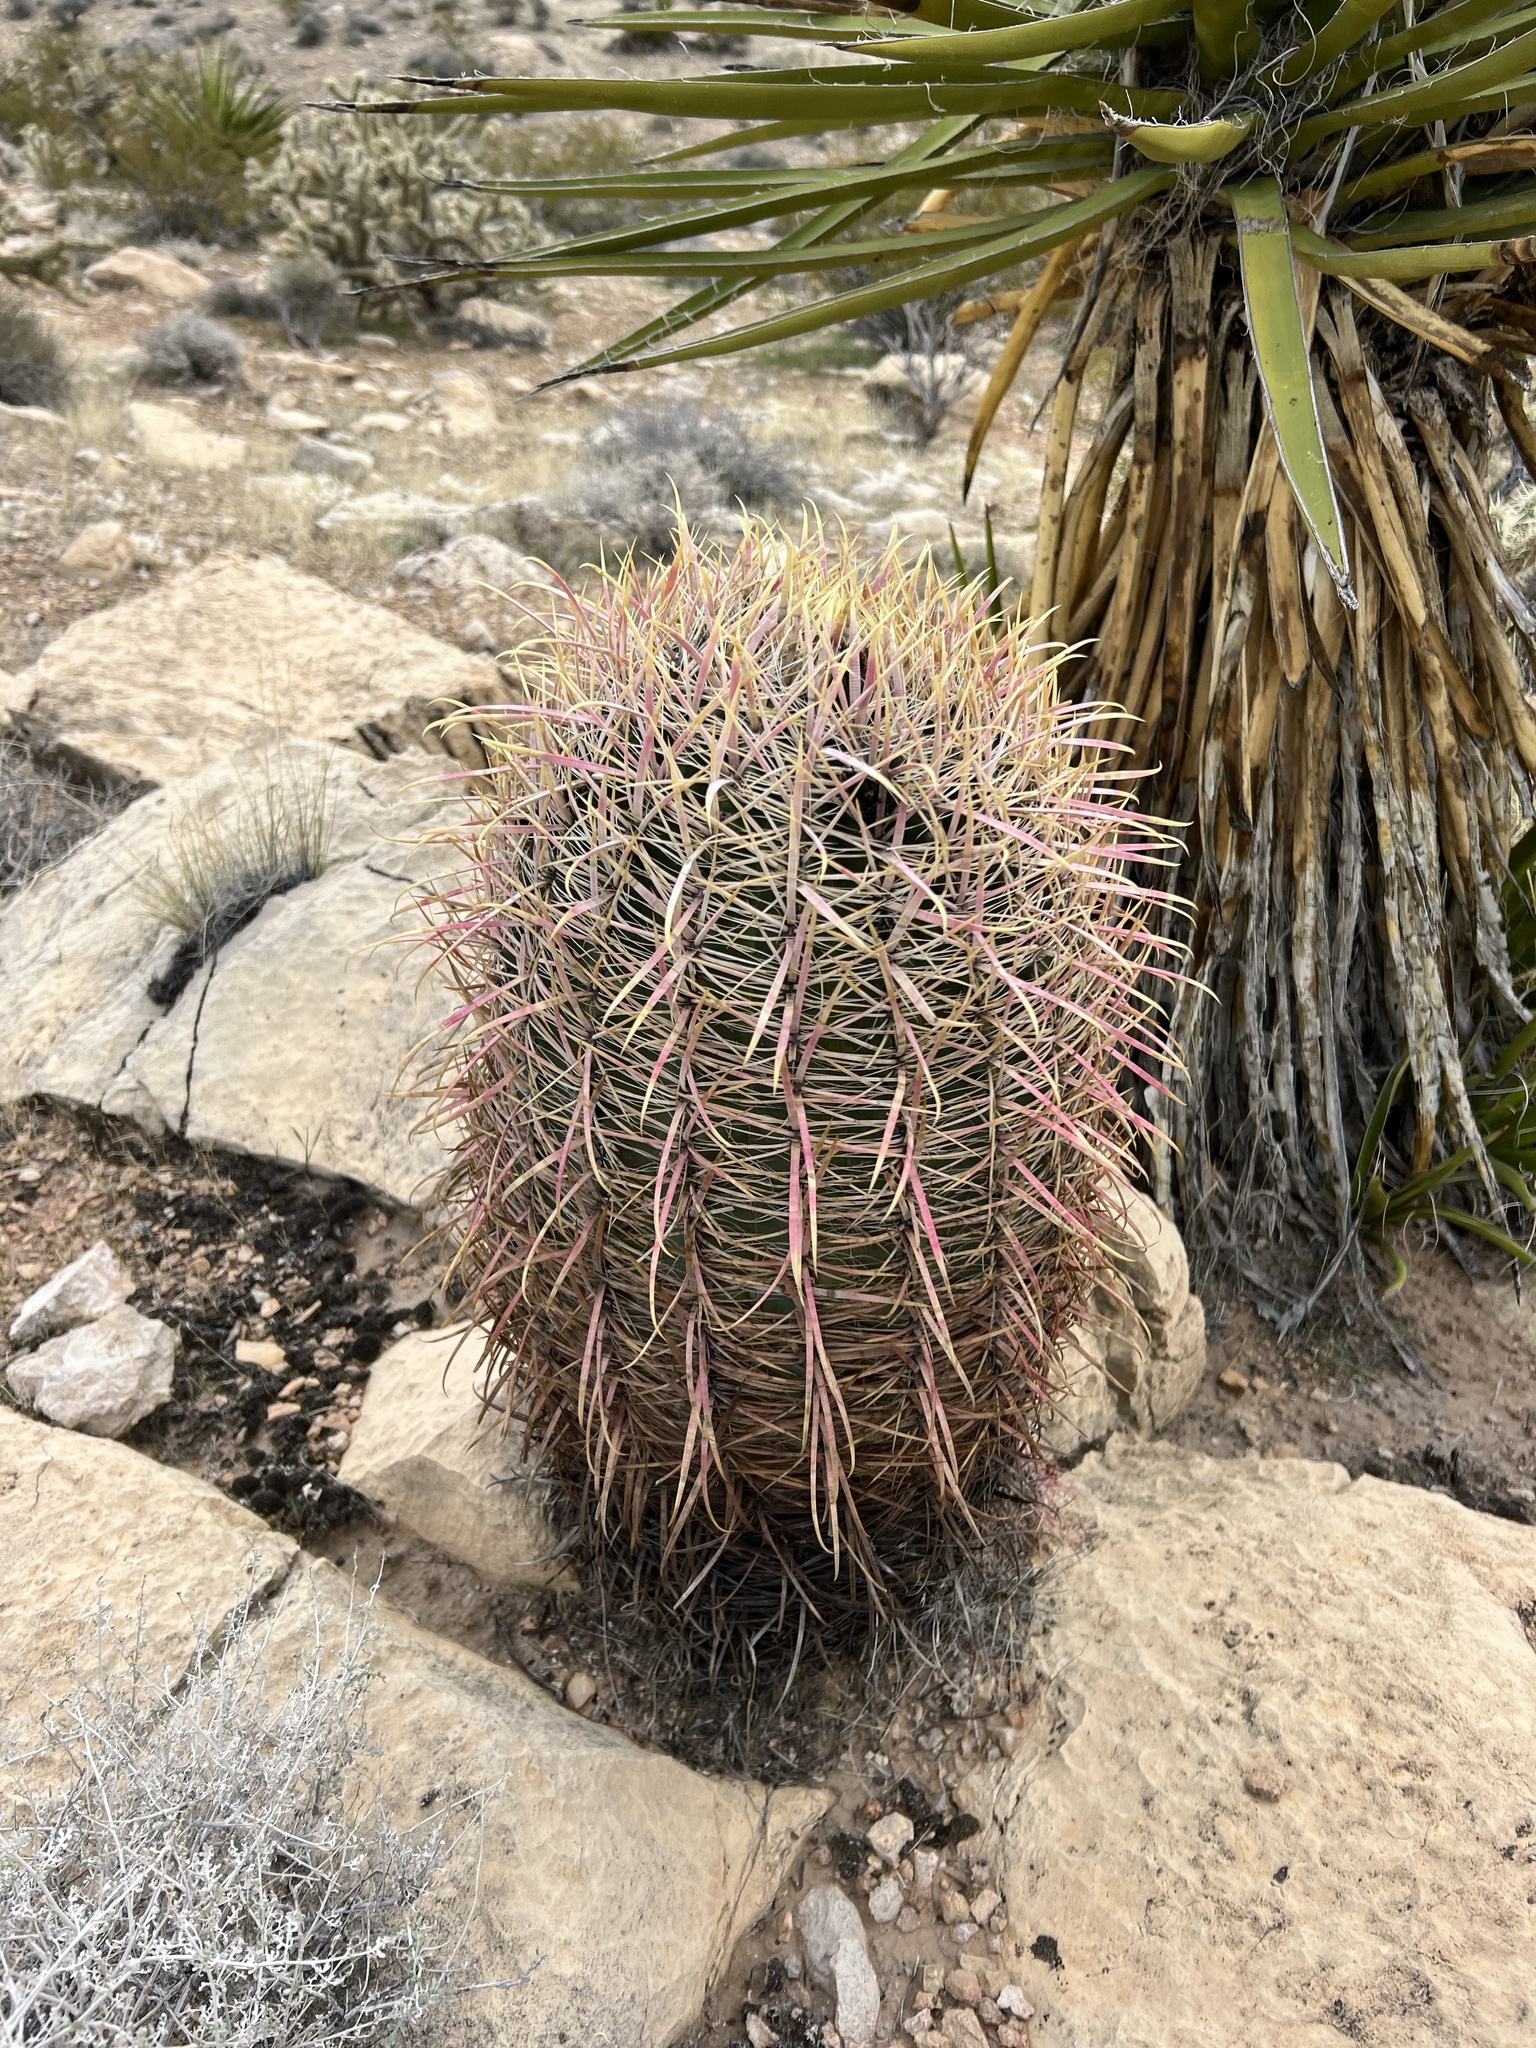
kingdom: Plantae
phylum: Tracheophyta
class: Magnoliopsida
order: Caryophyllales
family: Cactaceae
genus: Ferocactus
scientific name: Ferocactus cylindraceus
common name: California barrel cactus
